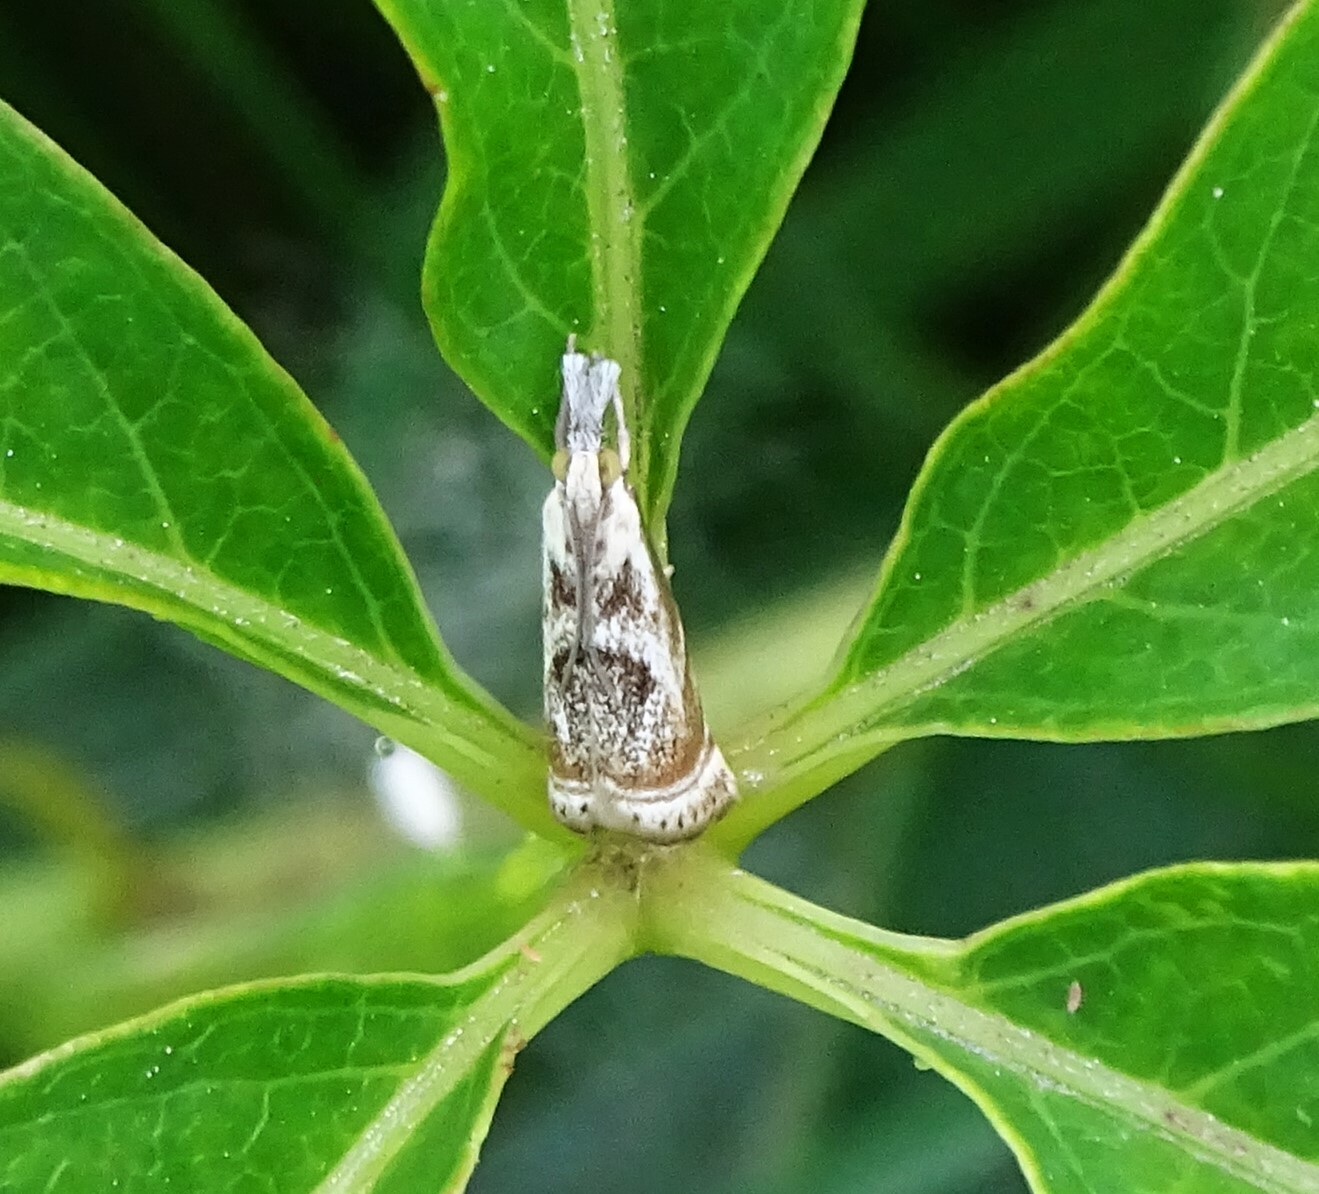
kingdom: Animalia
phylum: Arthropoda
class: Insecta
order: Lepidoptera
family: Crambidae
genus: Microcrambus
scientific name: Microcrambus elegans
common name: Elegant grass-veneer
